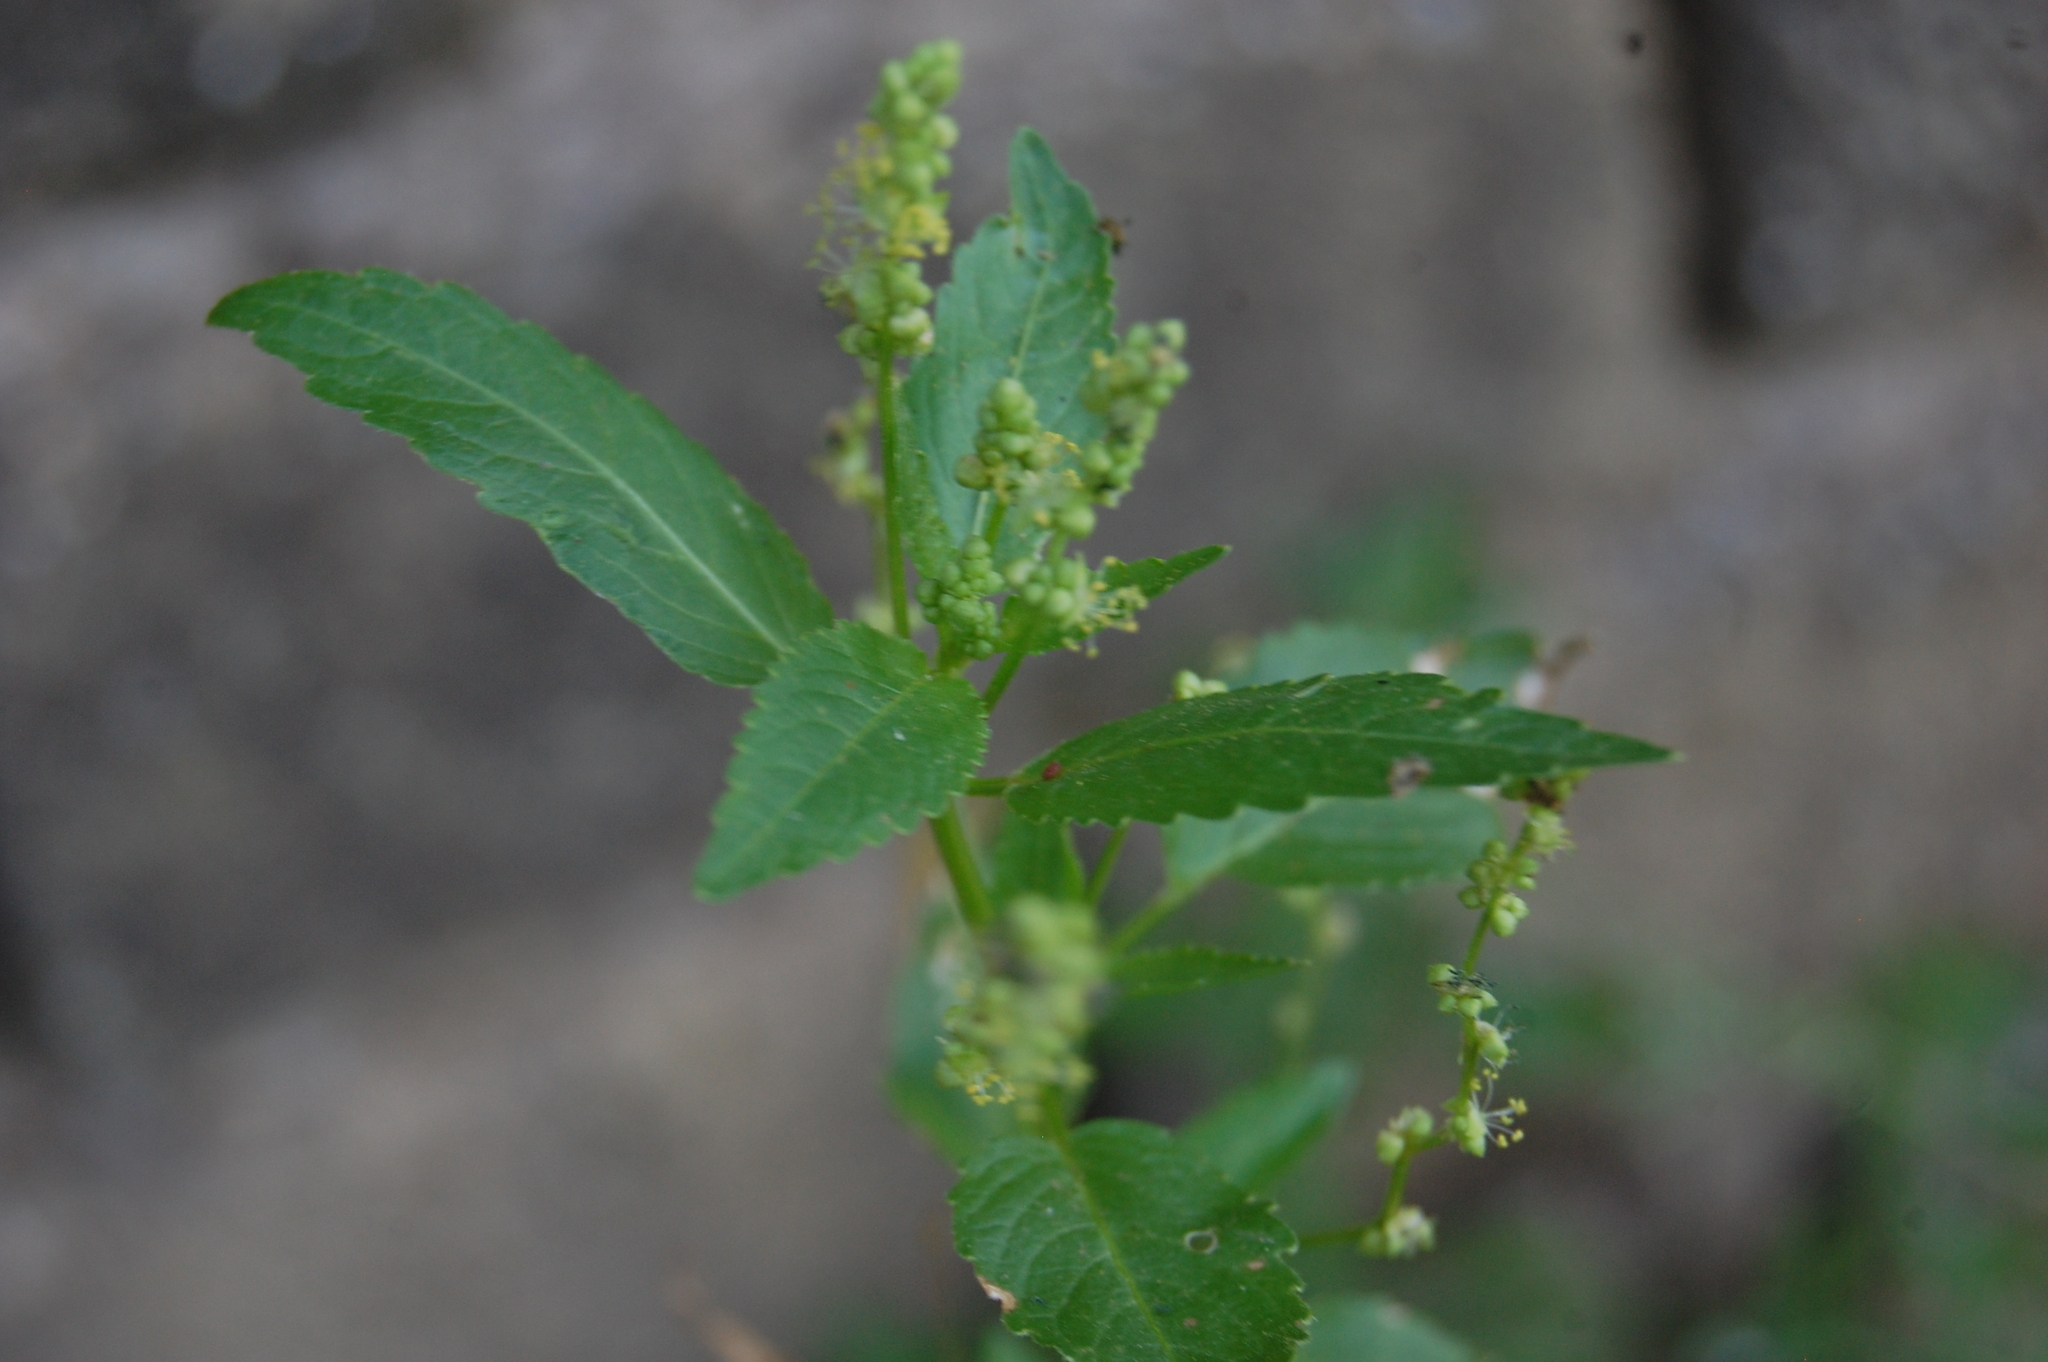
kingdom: Plantae
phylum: Tracheophyta
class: Magnoliopsida
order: Malpighiales
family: Euphorbiaceae
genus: Mercurialis
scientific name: Mercurialis annua
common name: Annual mercury
